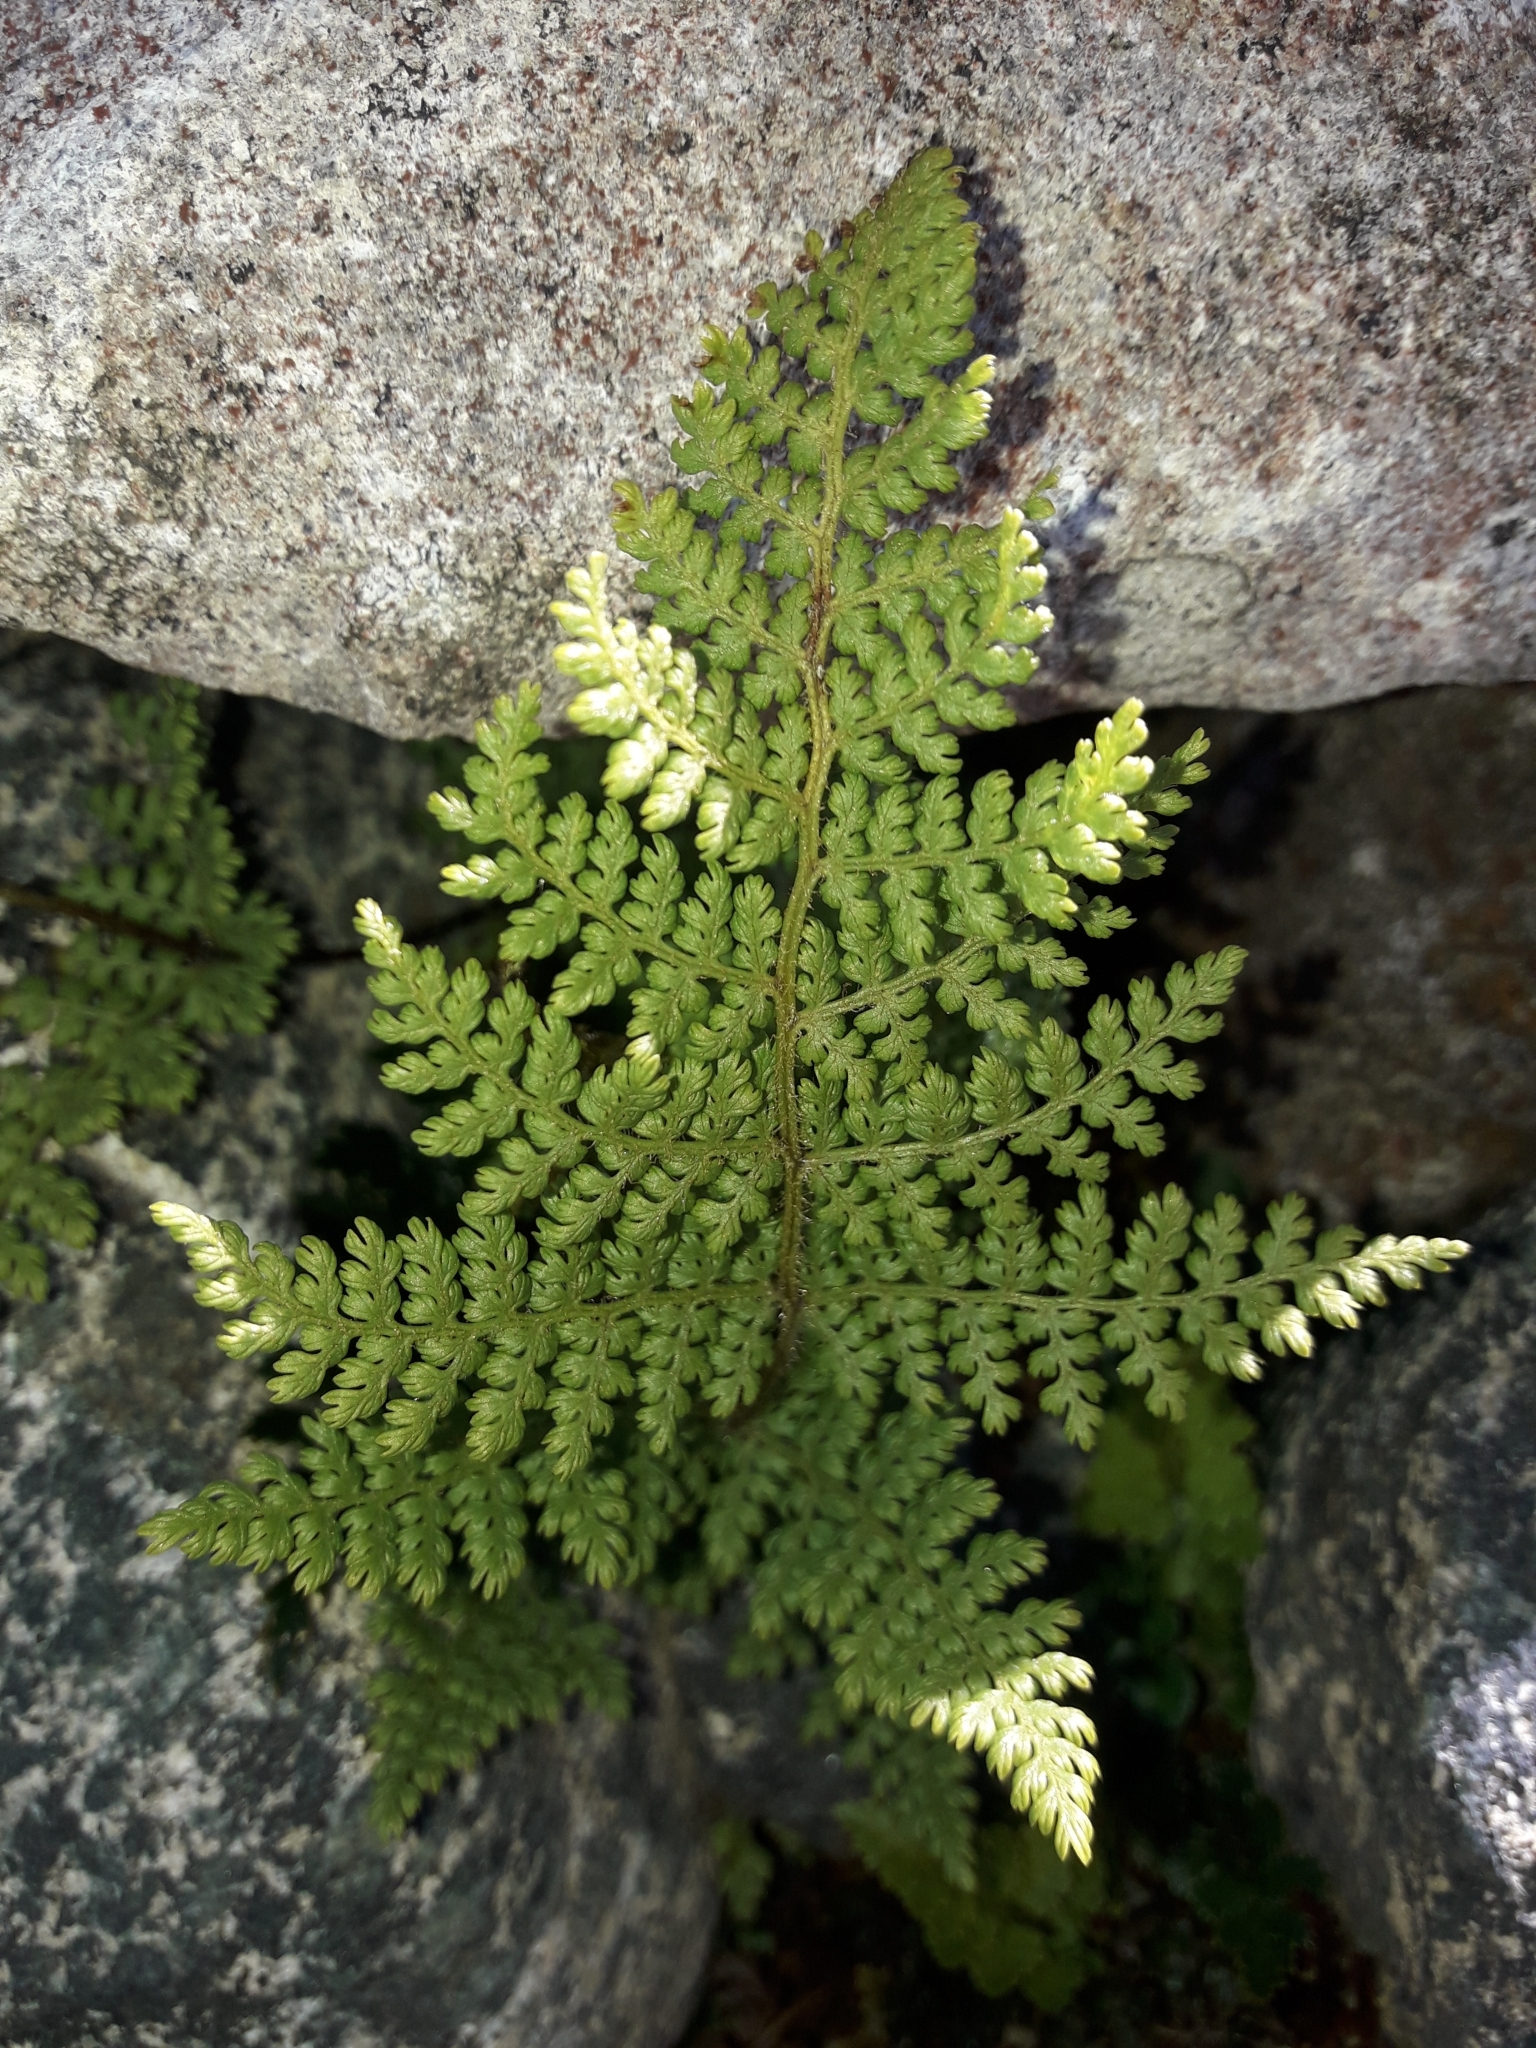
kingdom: Plantae
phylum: Tracheophyta
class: Polypodiopsida
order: Polypodiales
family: Dennstaedtiaceae
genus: Hypolepis
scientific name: Hypolepis millefolium
